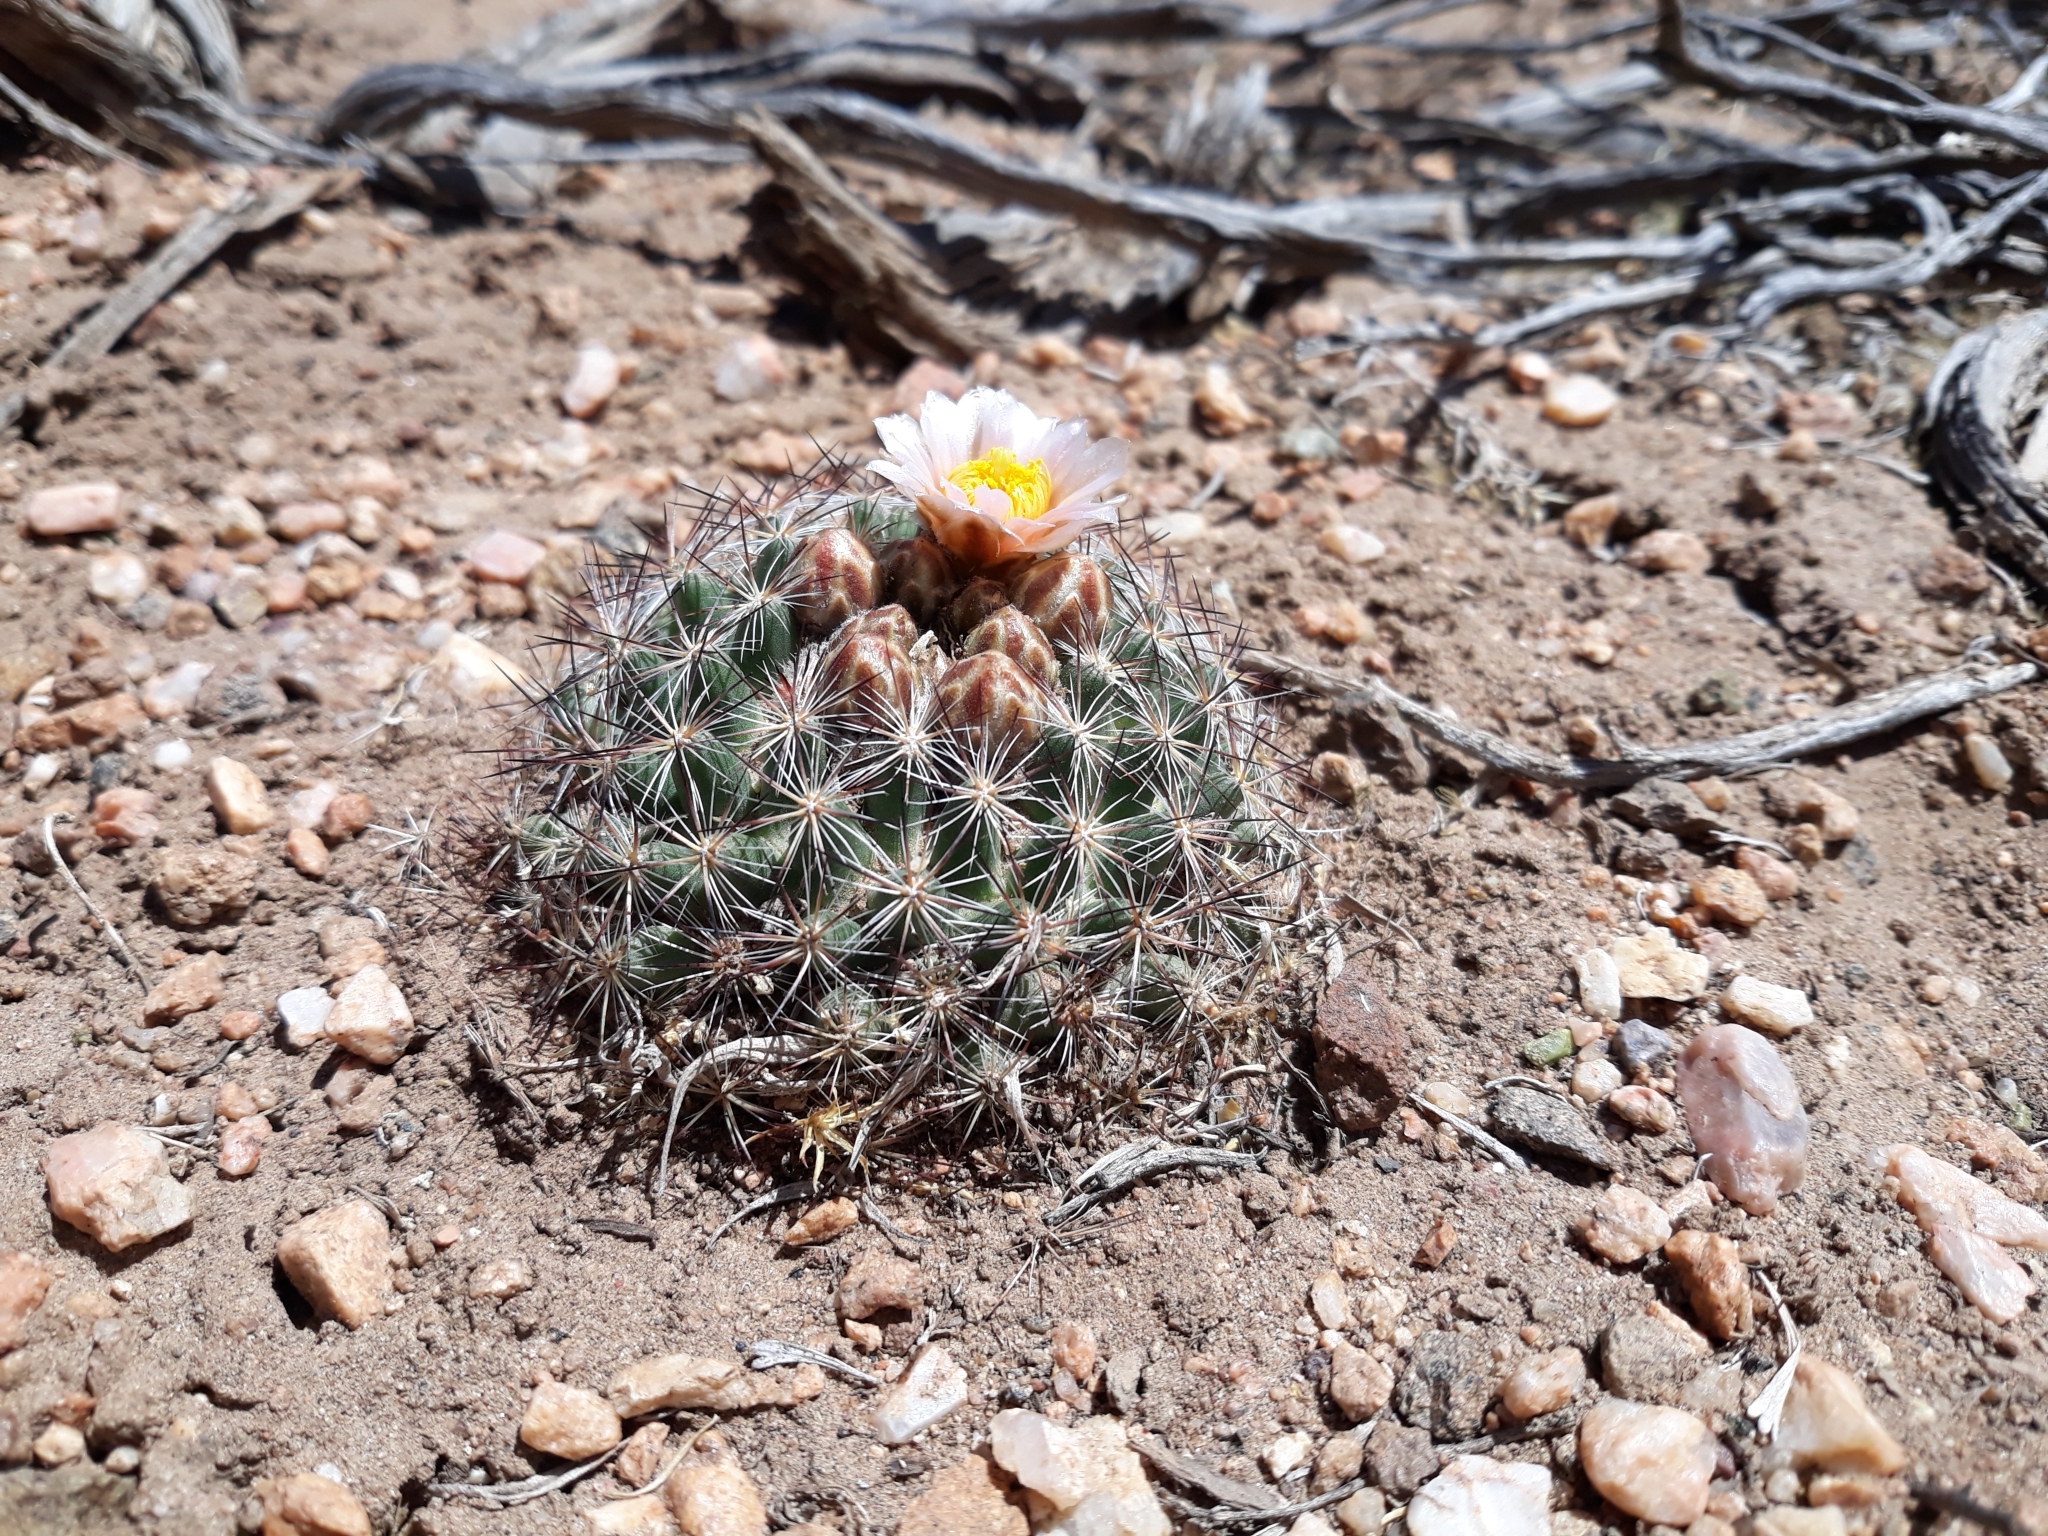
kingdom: Plantae
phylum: Tracheophyta
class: Magnoliopsida
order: Caryophyllales
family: Cactaceae
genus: Pediocactus
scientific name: Pediocactus simpsonii
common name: Simpson's hedgehog cactus
